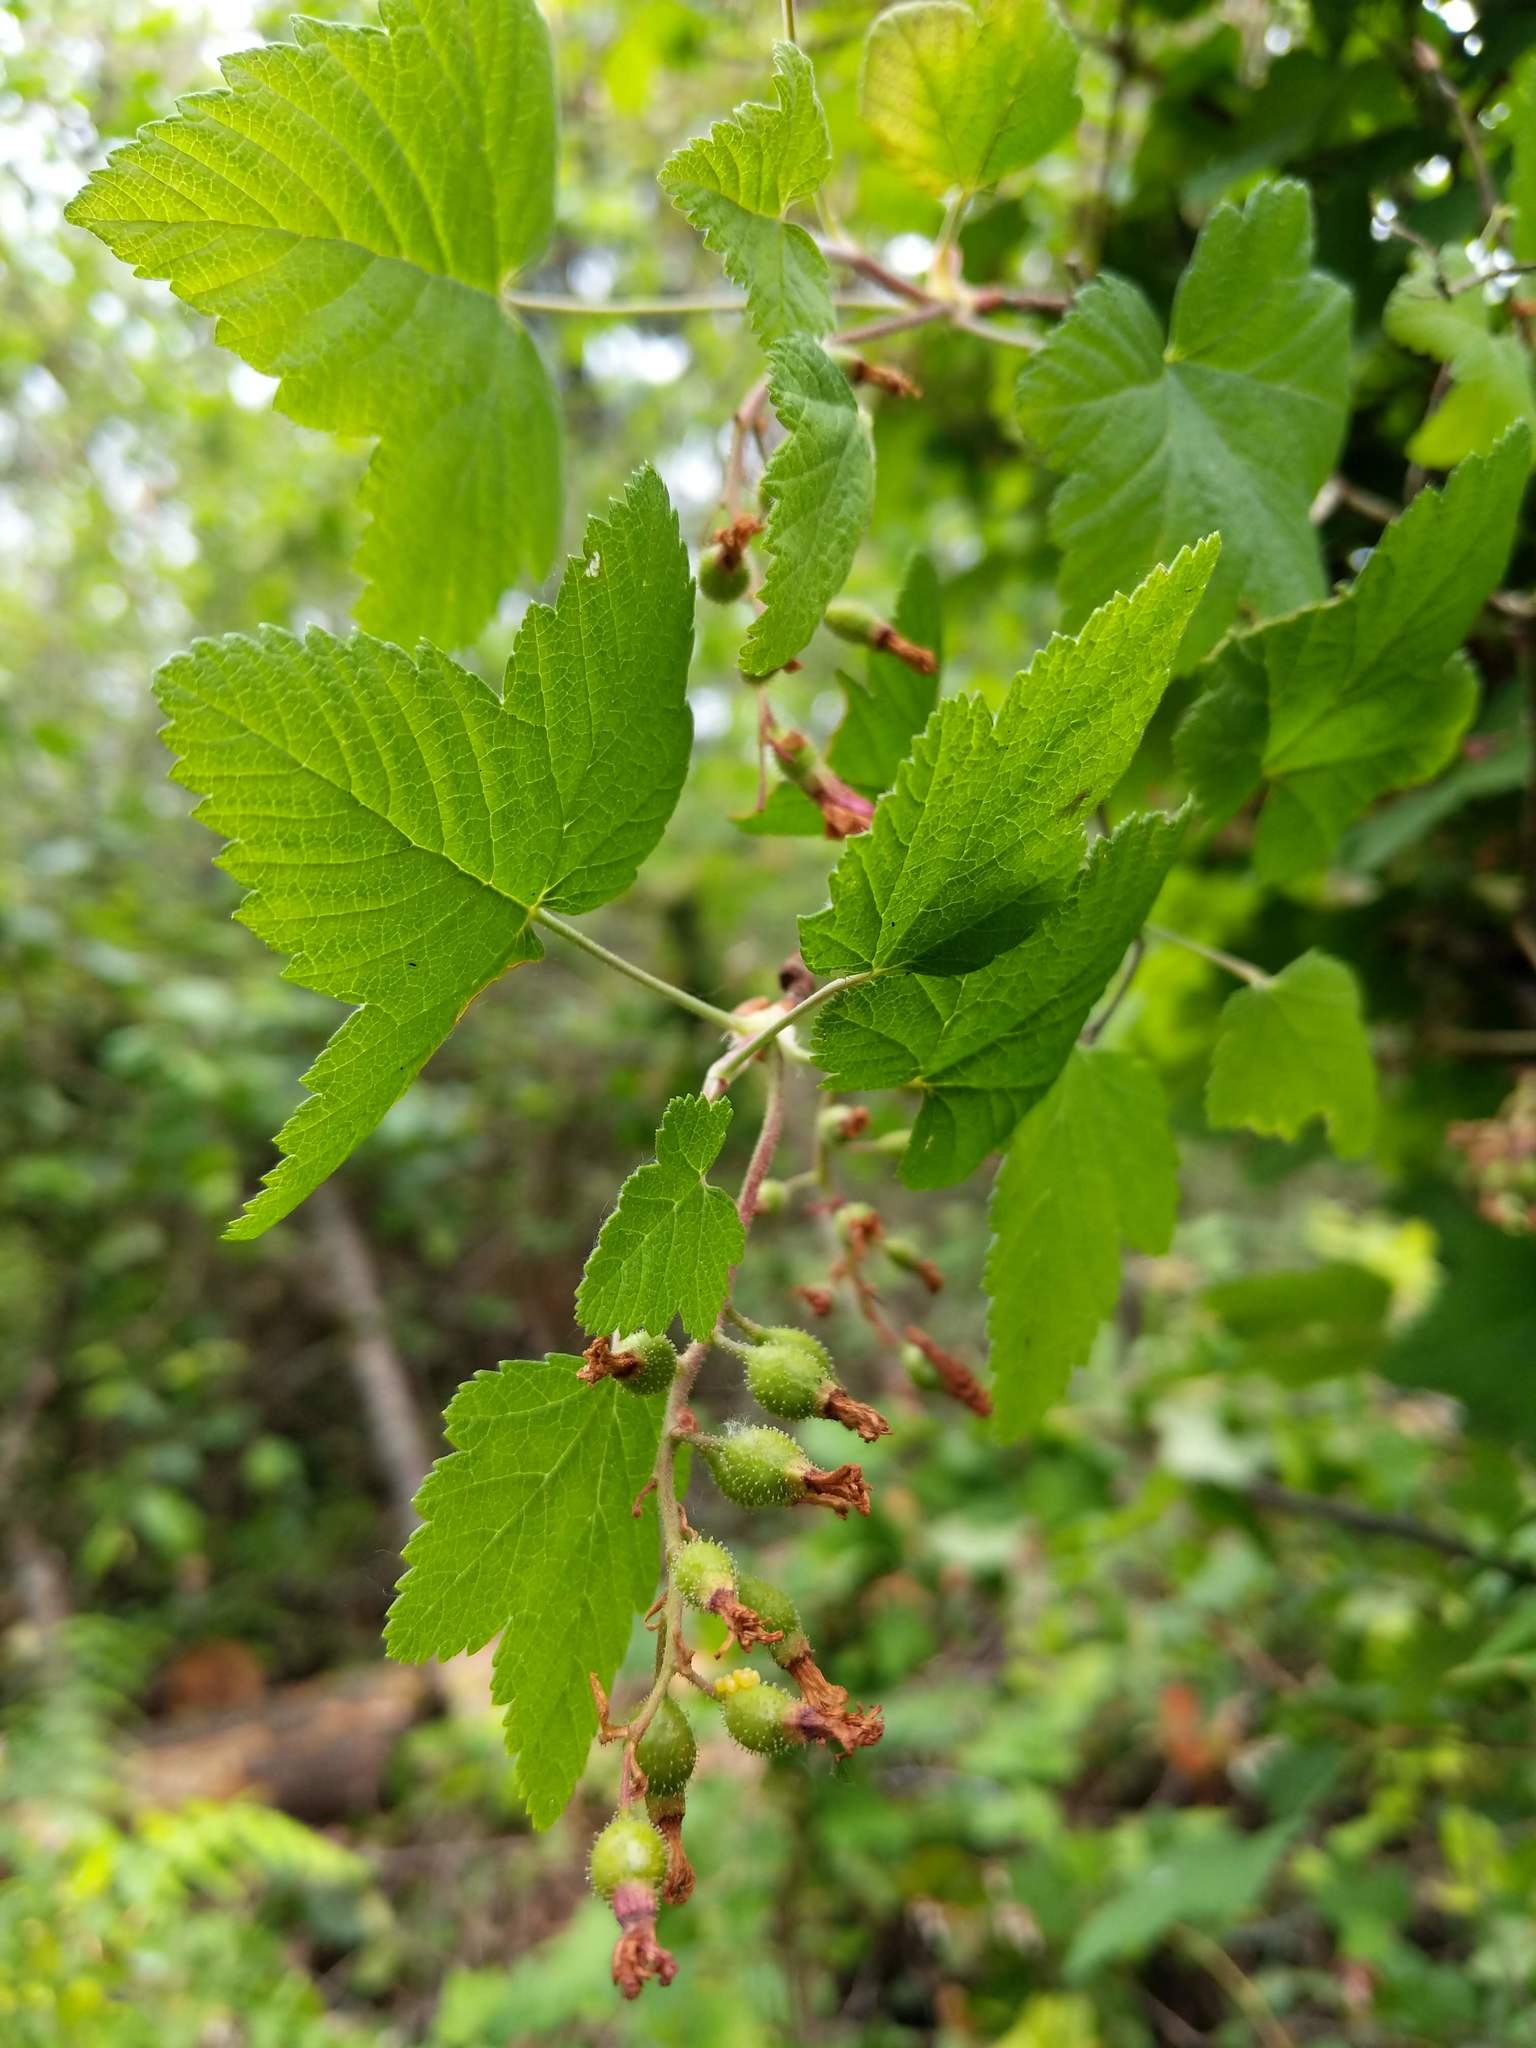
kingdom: Plantae
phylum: Tracheophyta
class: Magnoliopsida
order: Saxifragales
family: Grossulariaceae
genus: Ribes
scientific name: Ribes sanguineum
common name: Flowering currant
